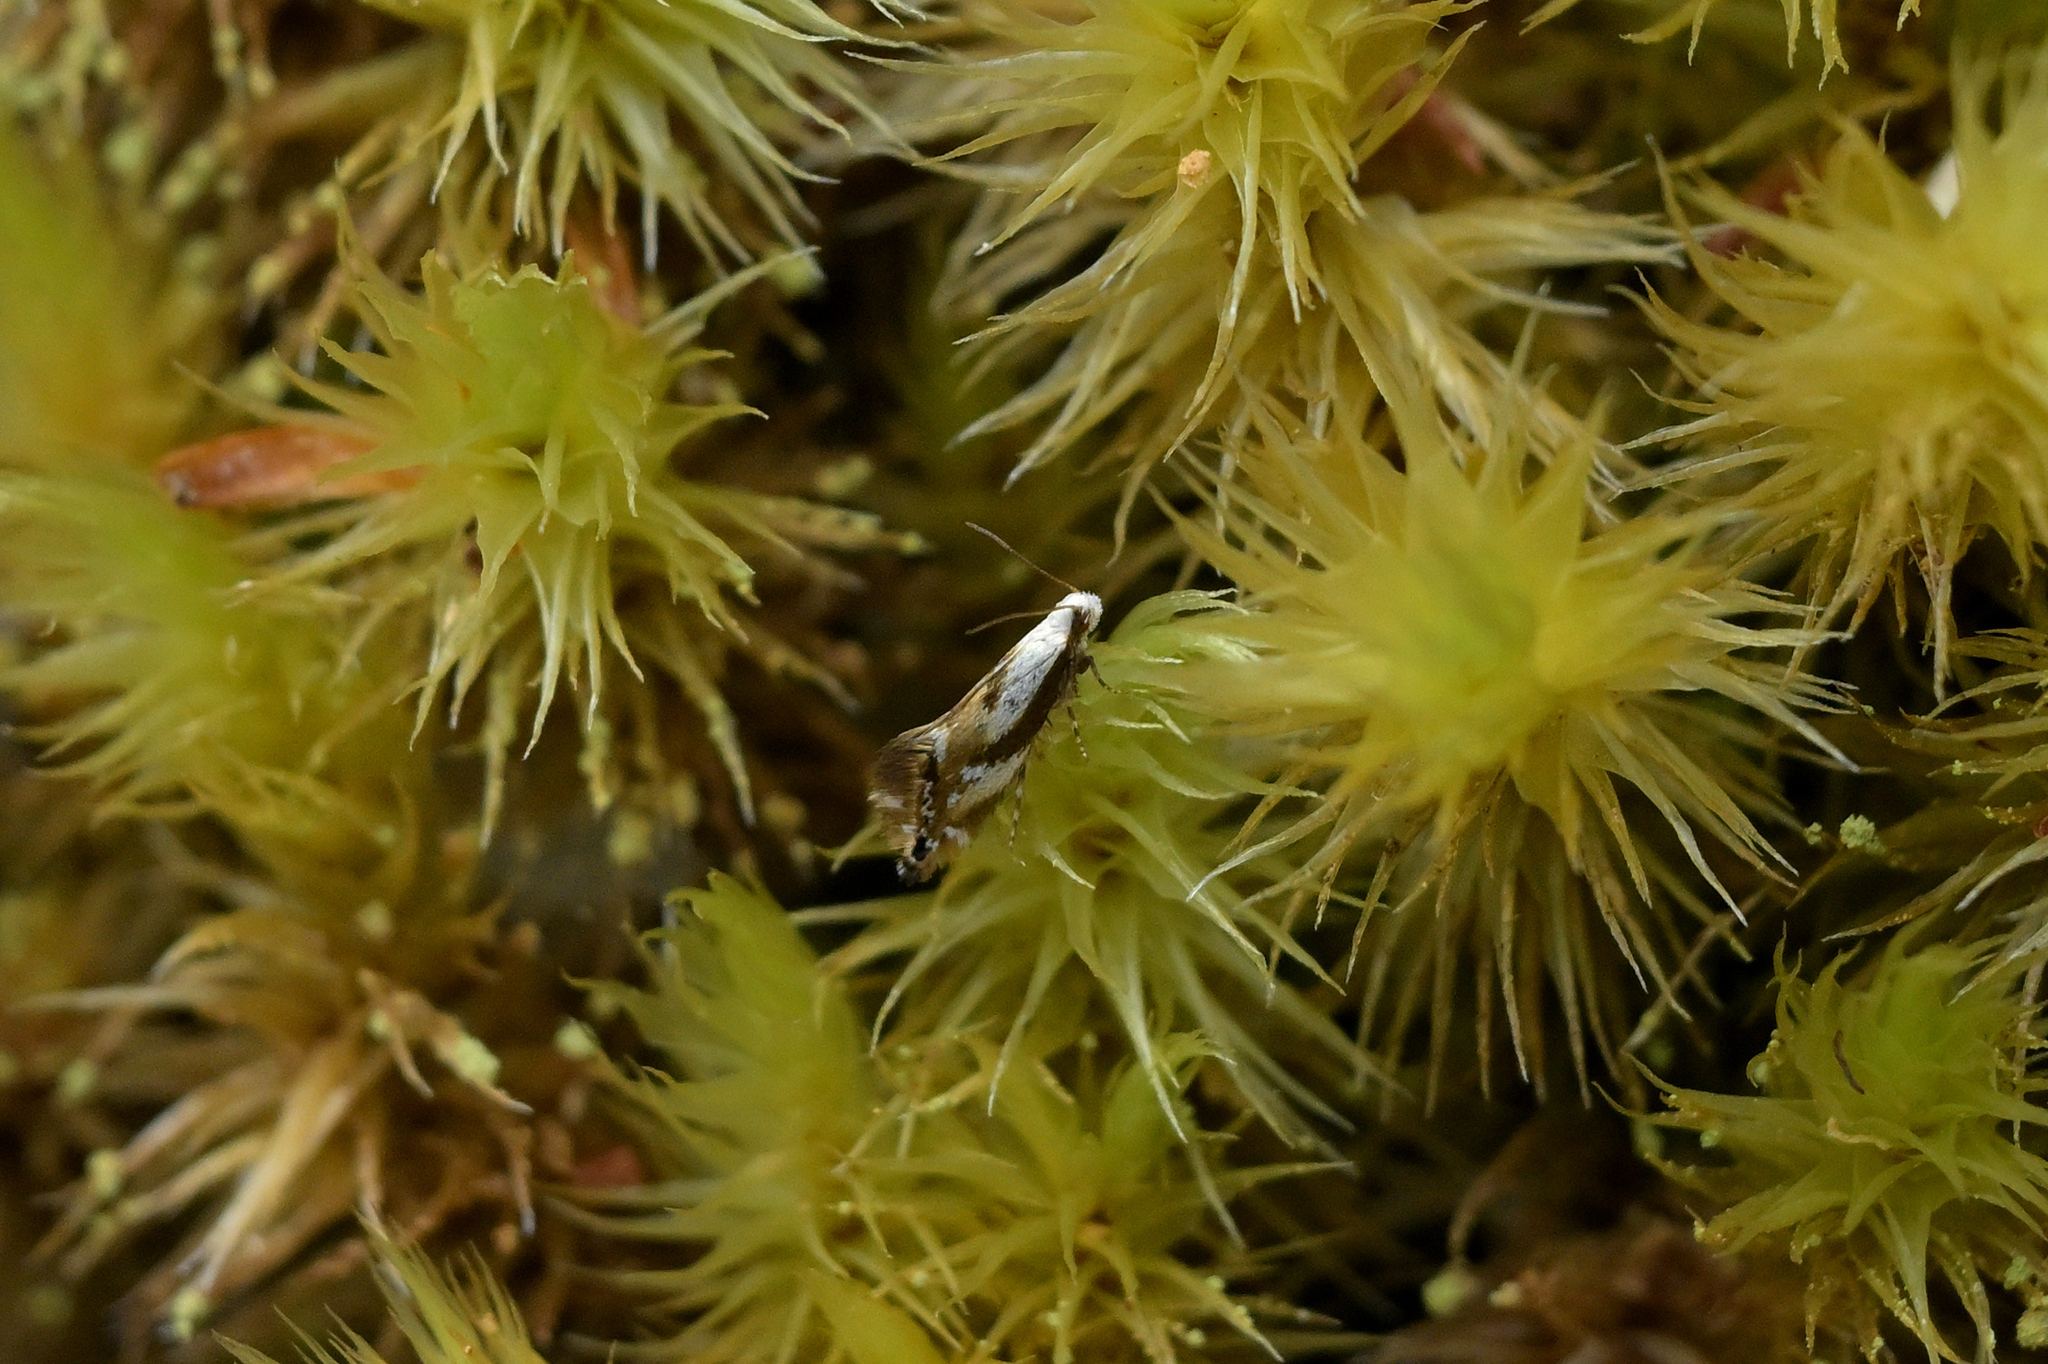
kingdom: Animalia
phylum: Arthropoda
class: Insecta
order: Lepidoptera
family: Mnesarchaeidae
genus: Mnesarchella
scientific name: Mnesarchella acuta
